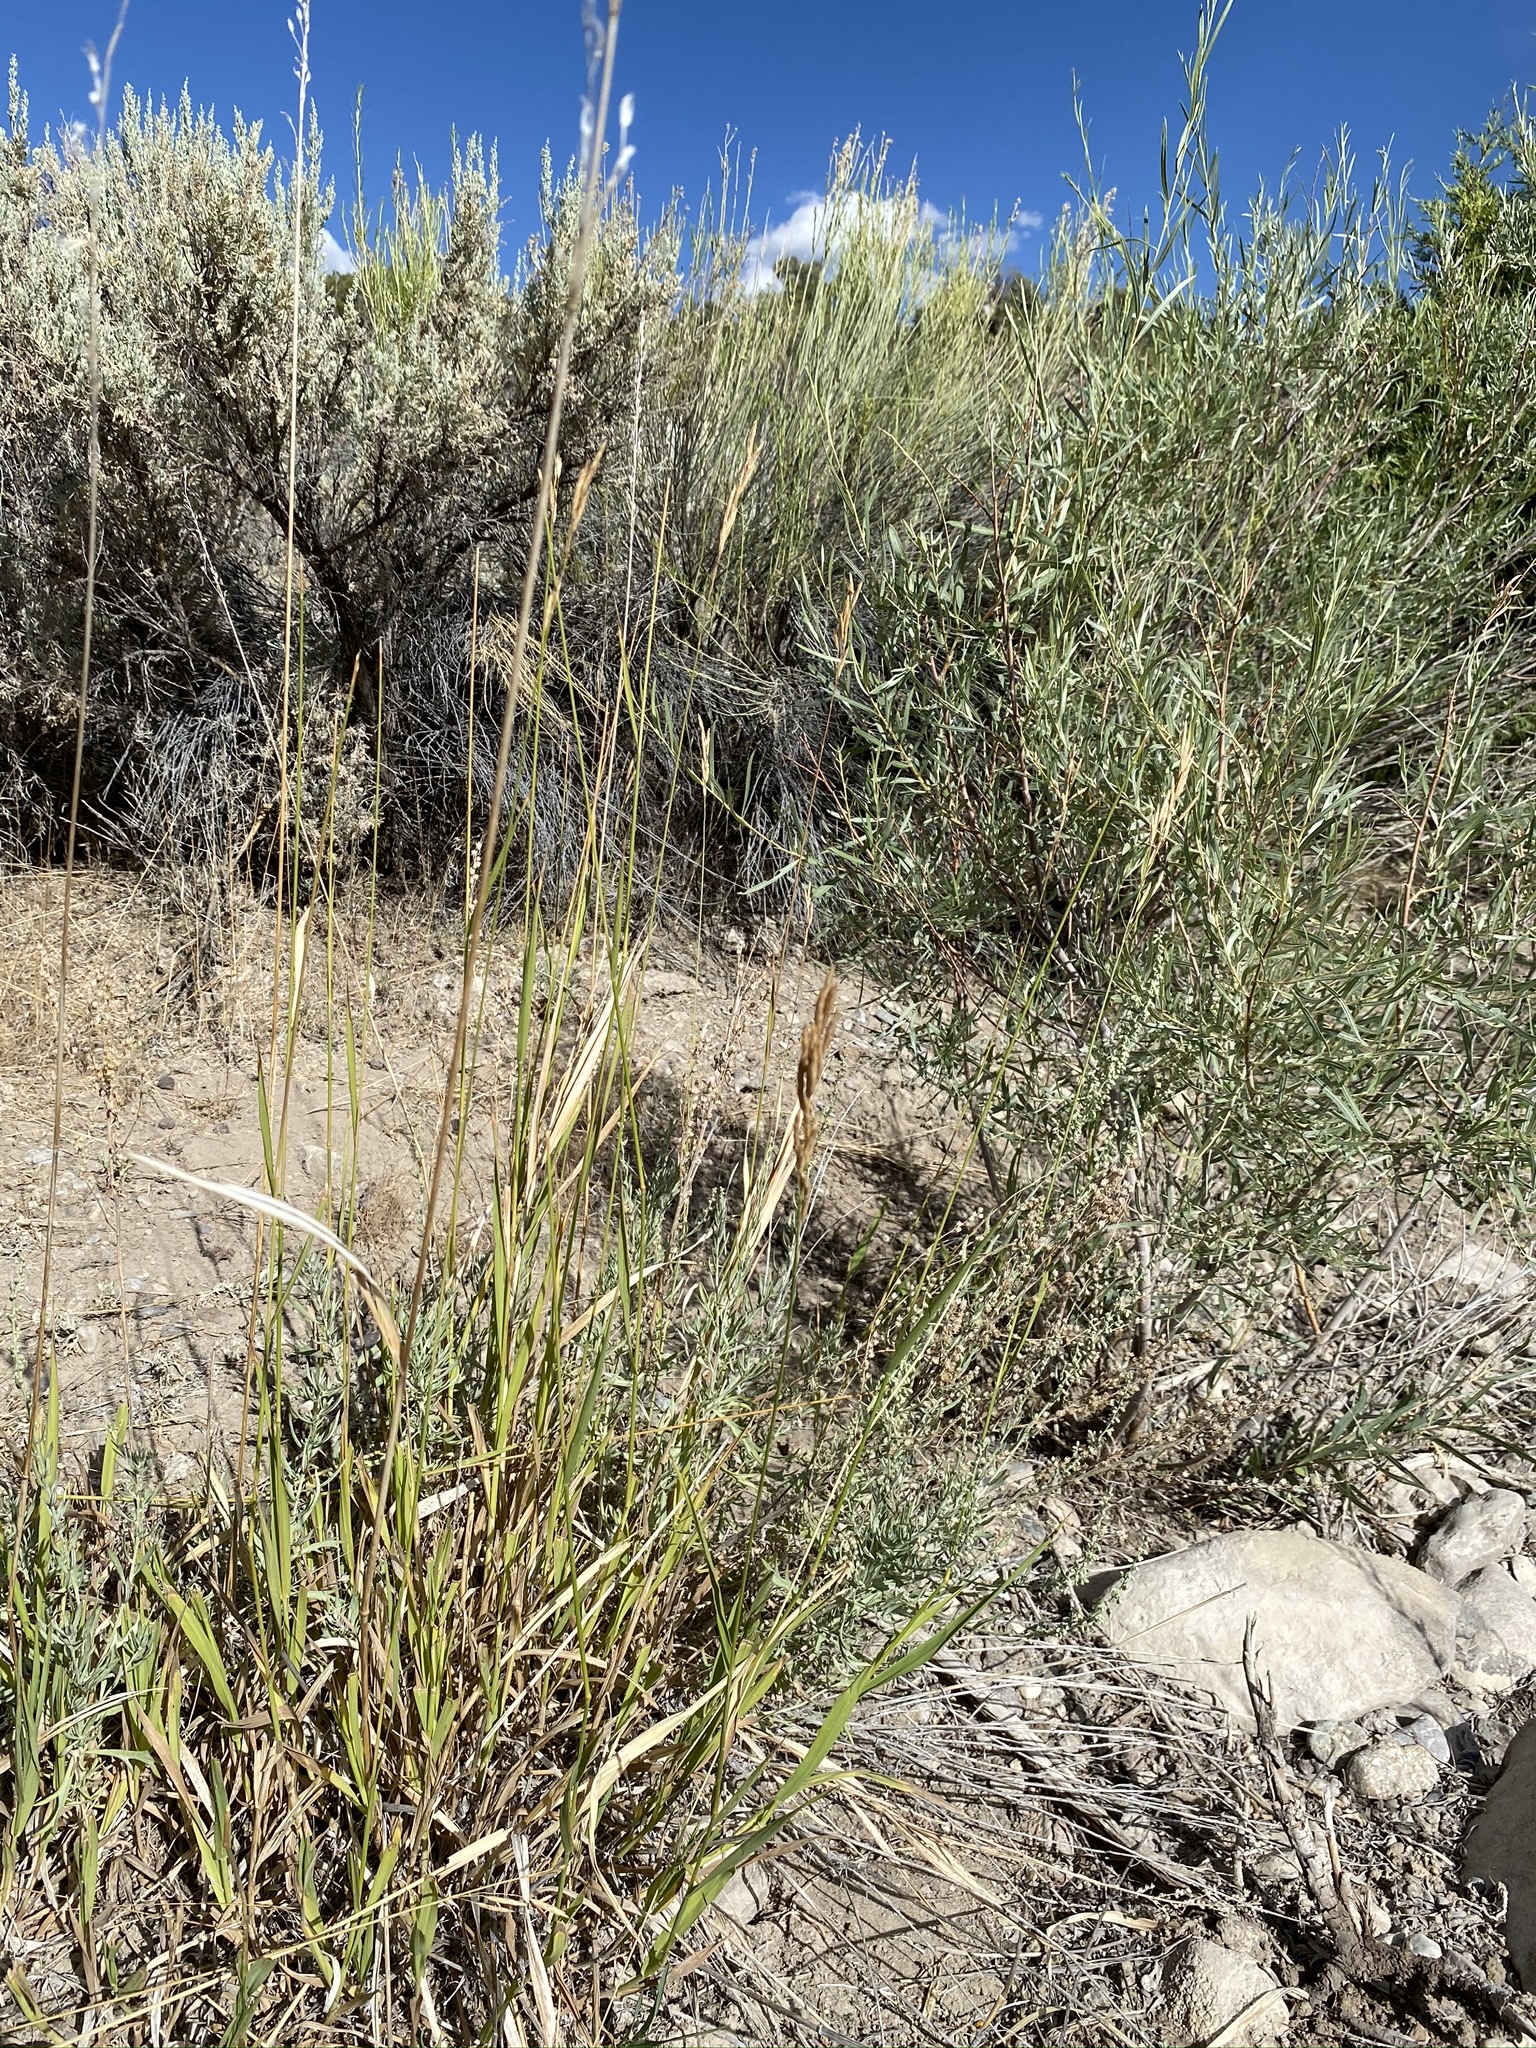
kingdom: Plantae
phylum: Tracheophyta
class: Liliopsida
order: Poales
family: Poaceae
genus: Bromus
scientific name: Bromus inermis
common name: Smooth brome
